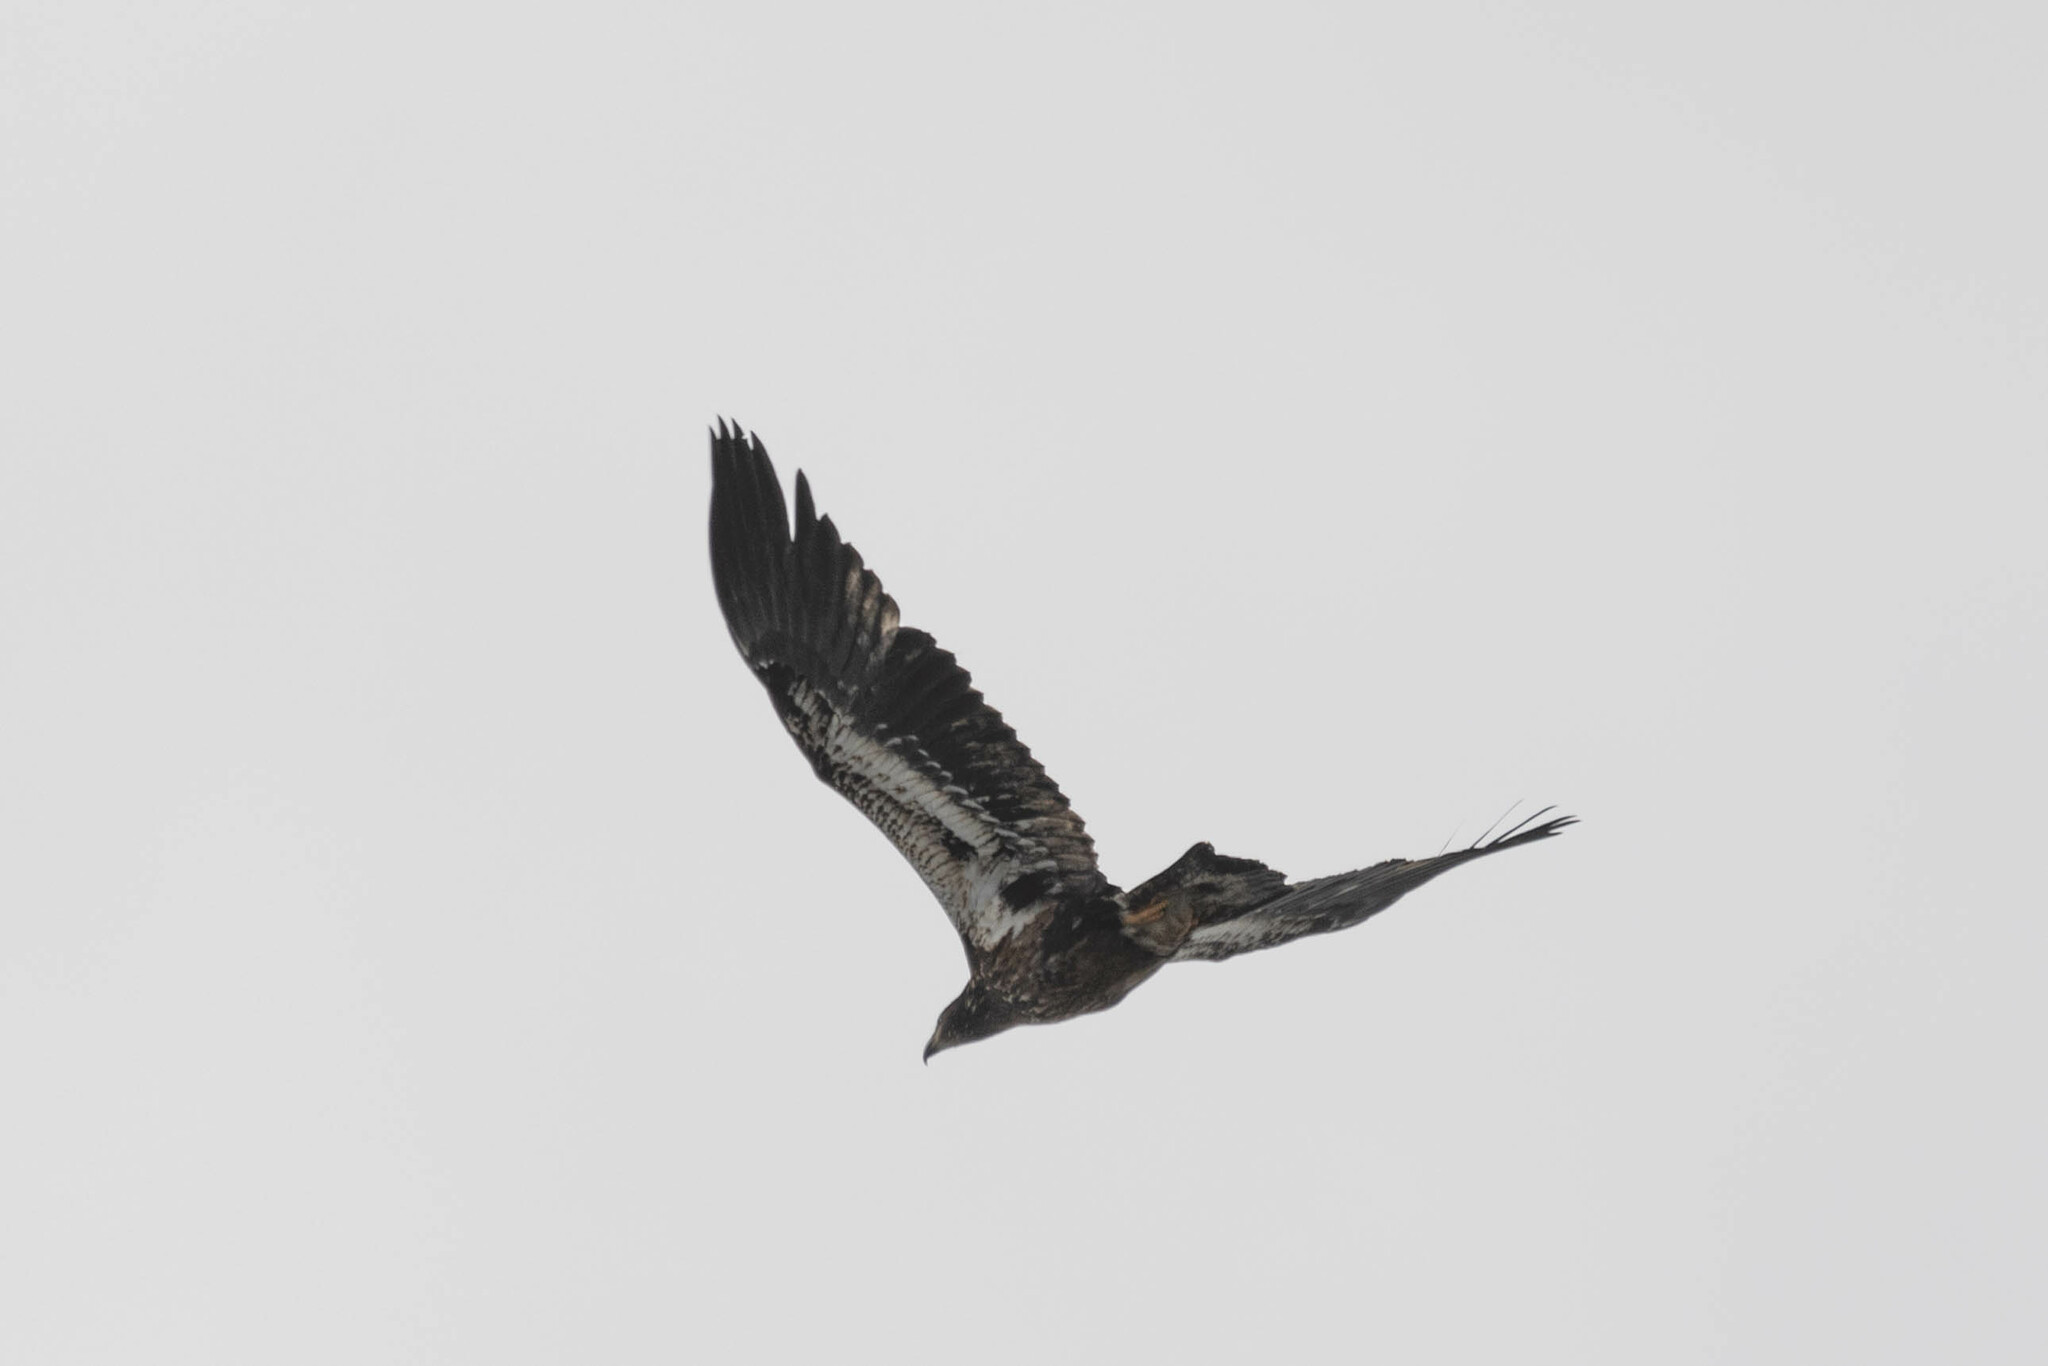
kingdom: Animalia
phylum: Chordata
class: Aves
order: Accipitriformes
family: Accipitridae
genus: Haliaeetus
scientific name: Haliaeetus leucocephalus
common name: Bald eagle
